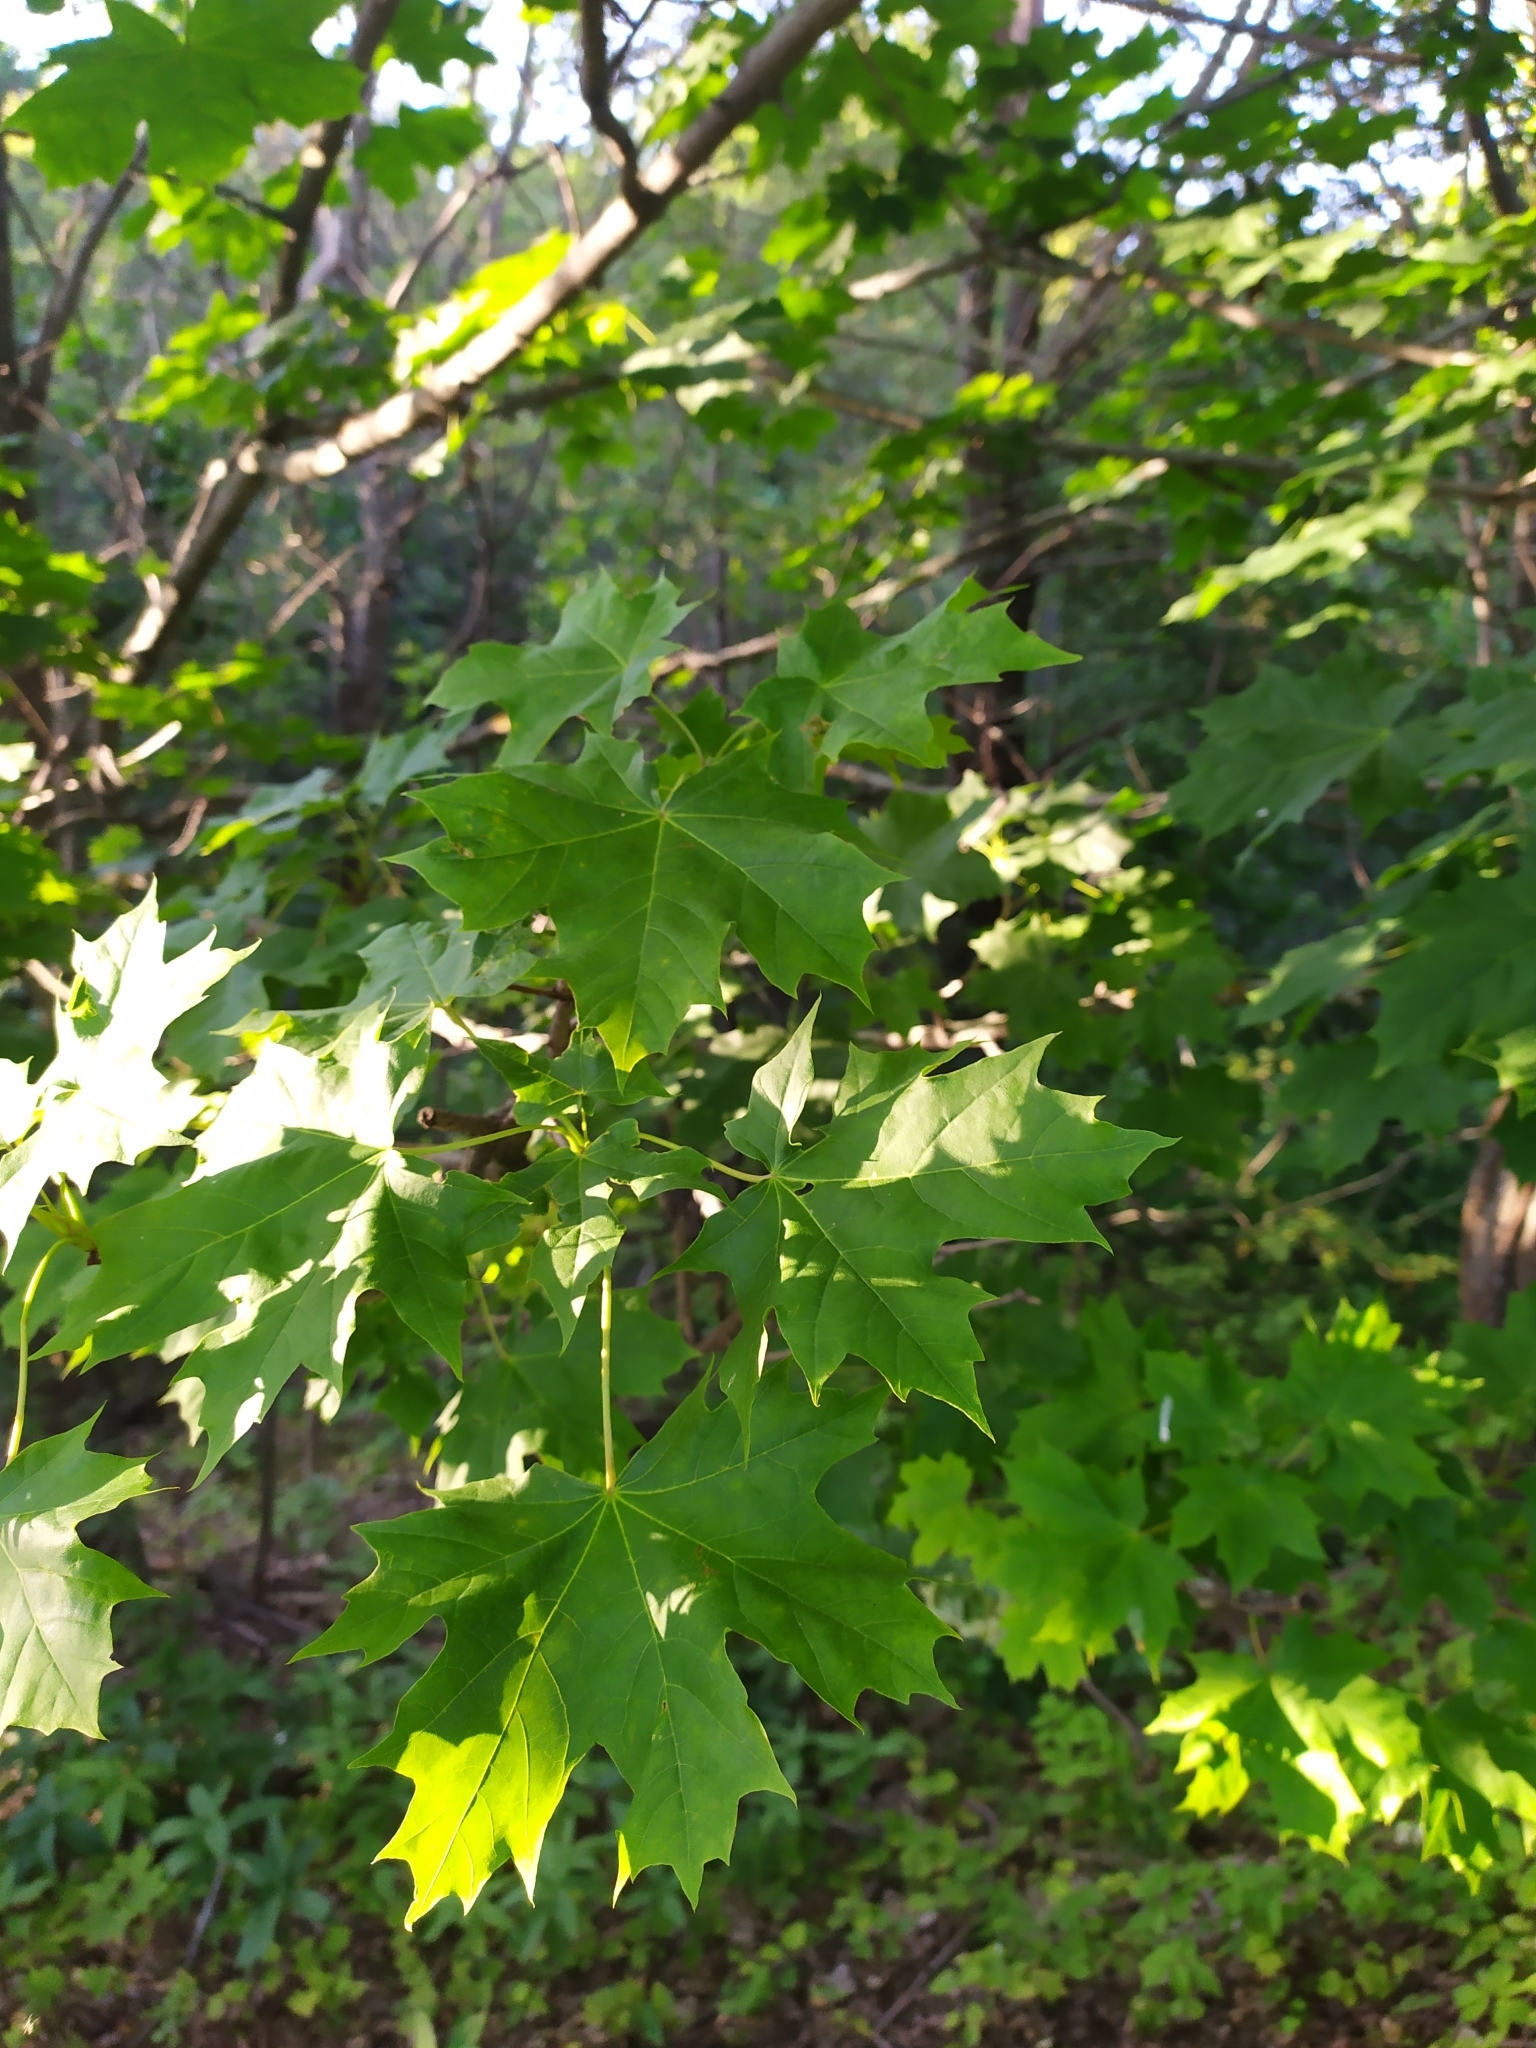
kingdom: Plantae
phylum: Tracheophyta
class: Magnoliopsida
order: Sapindales
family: Sapindaceae
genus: Acer
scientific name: Acer platanoides
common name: Norway maple
